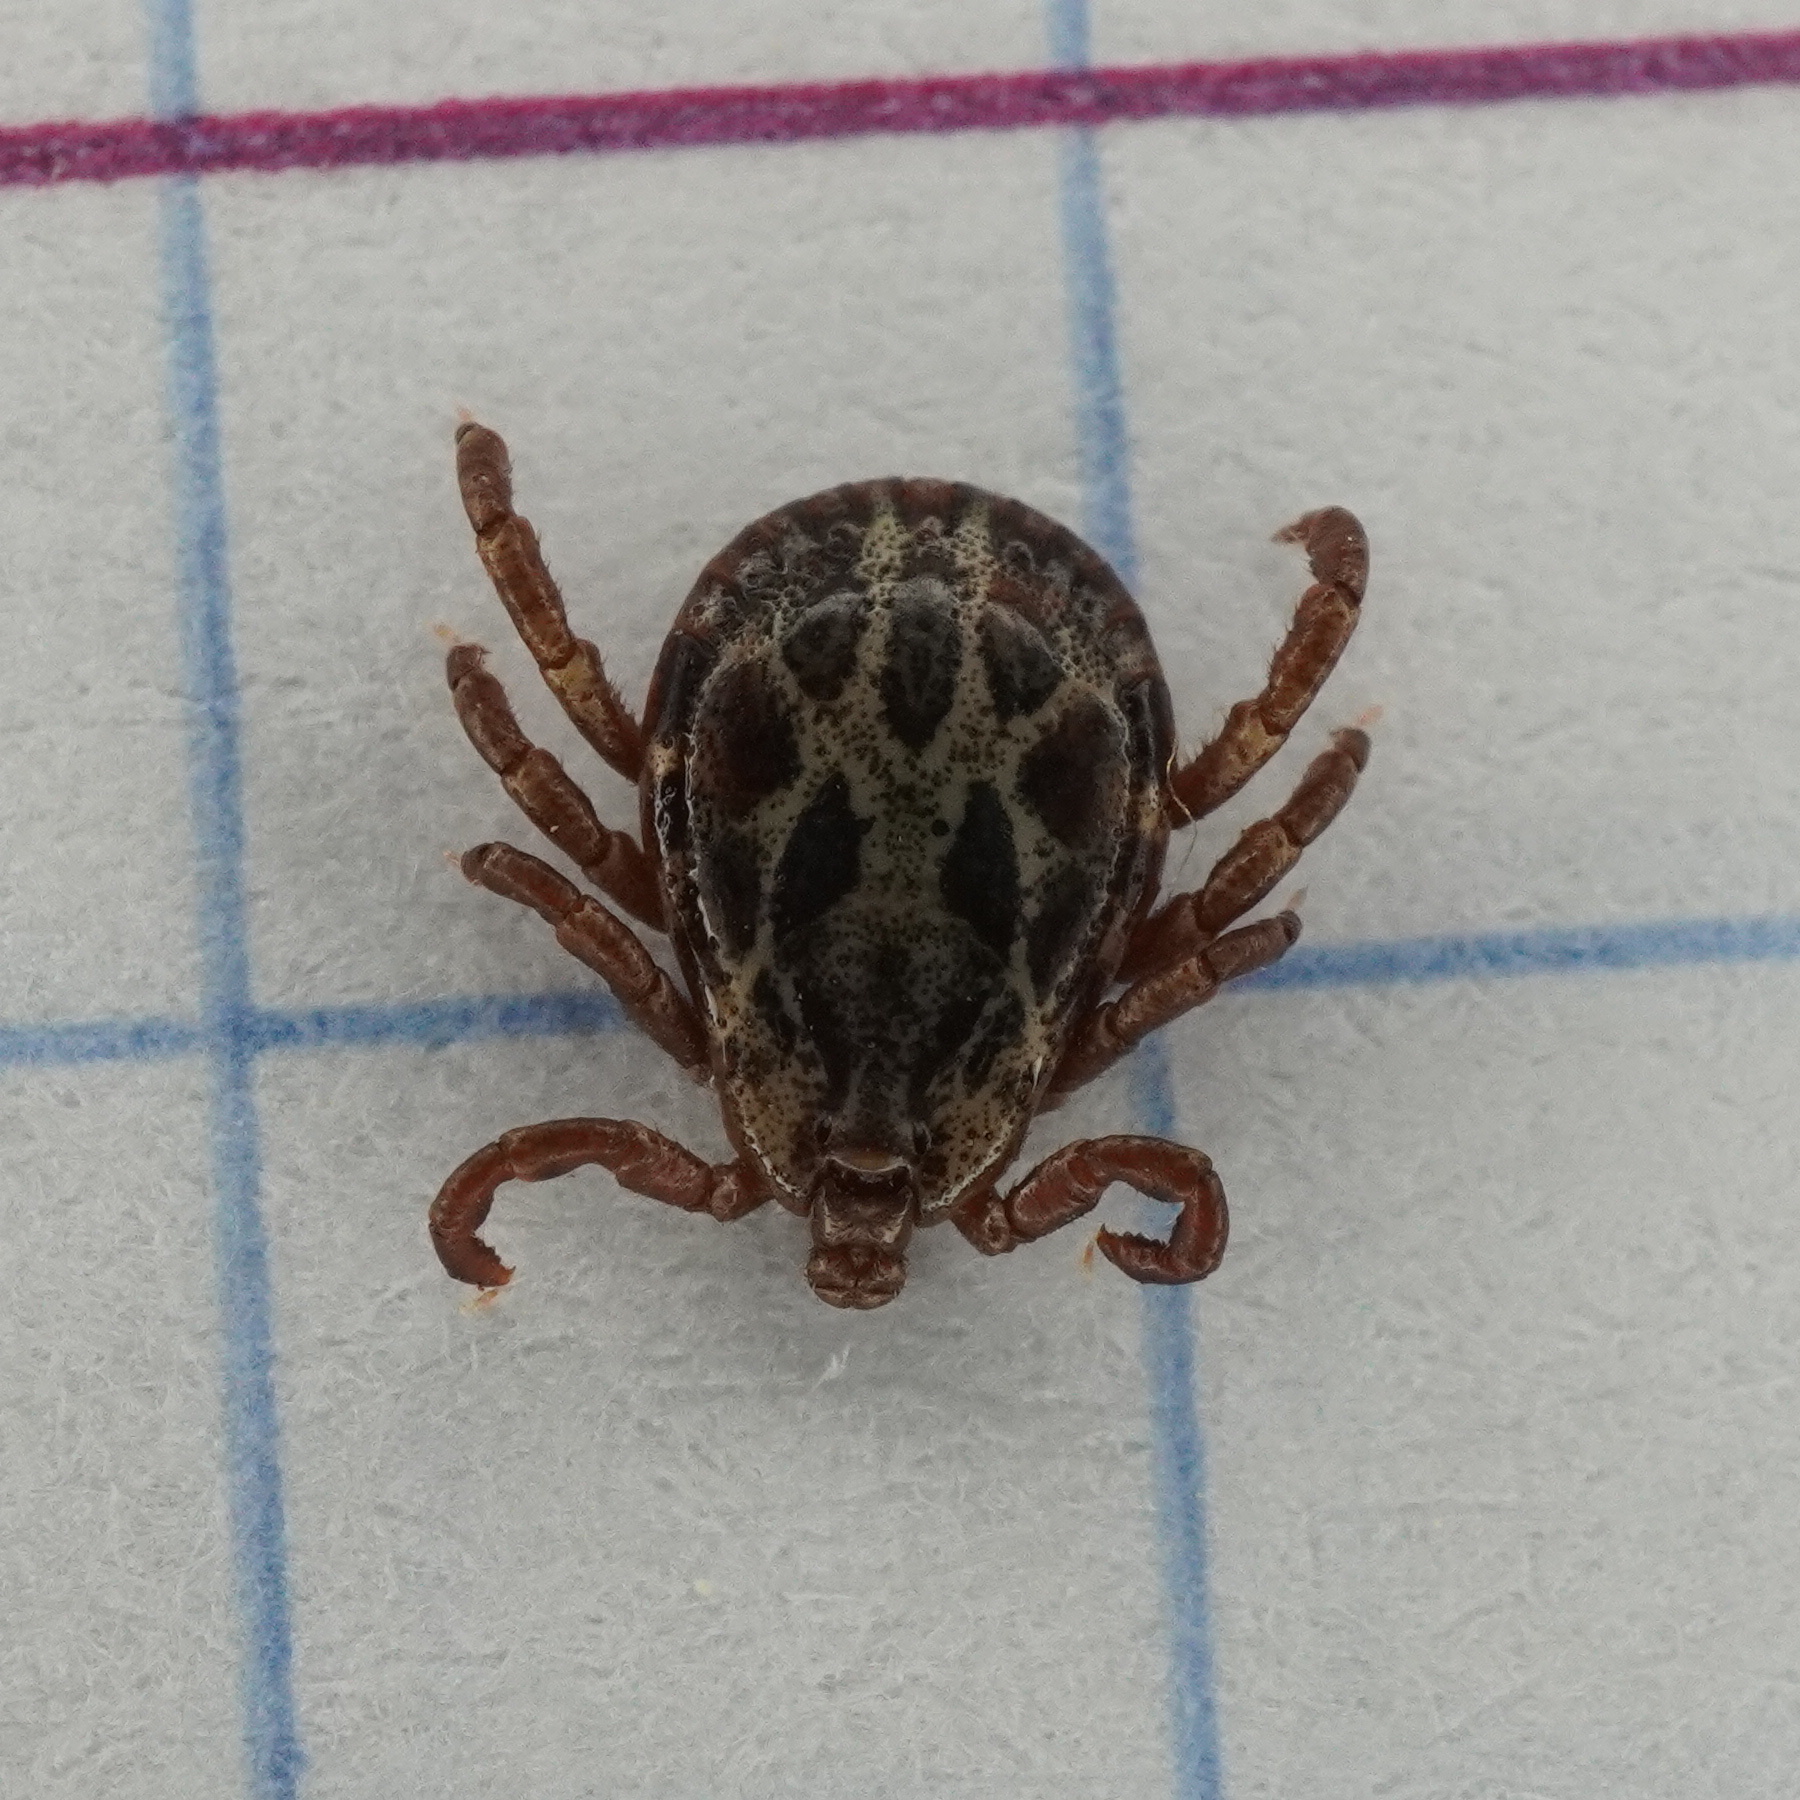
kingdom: Animalia
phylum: Arthropoda
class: Arachnida
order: Ixodida
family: Ixodidae
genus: Dermacentor
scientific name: Dermacentor marginatus
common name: Ornate sheep tick
